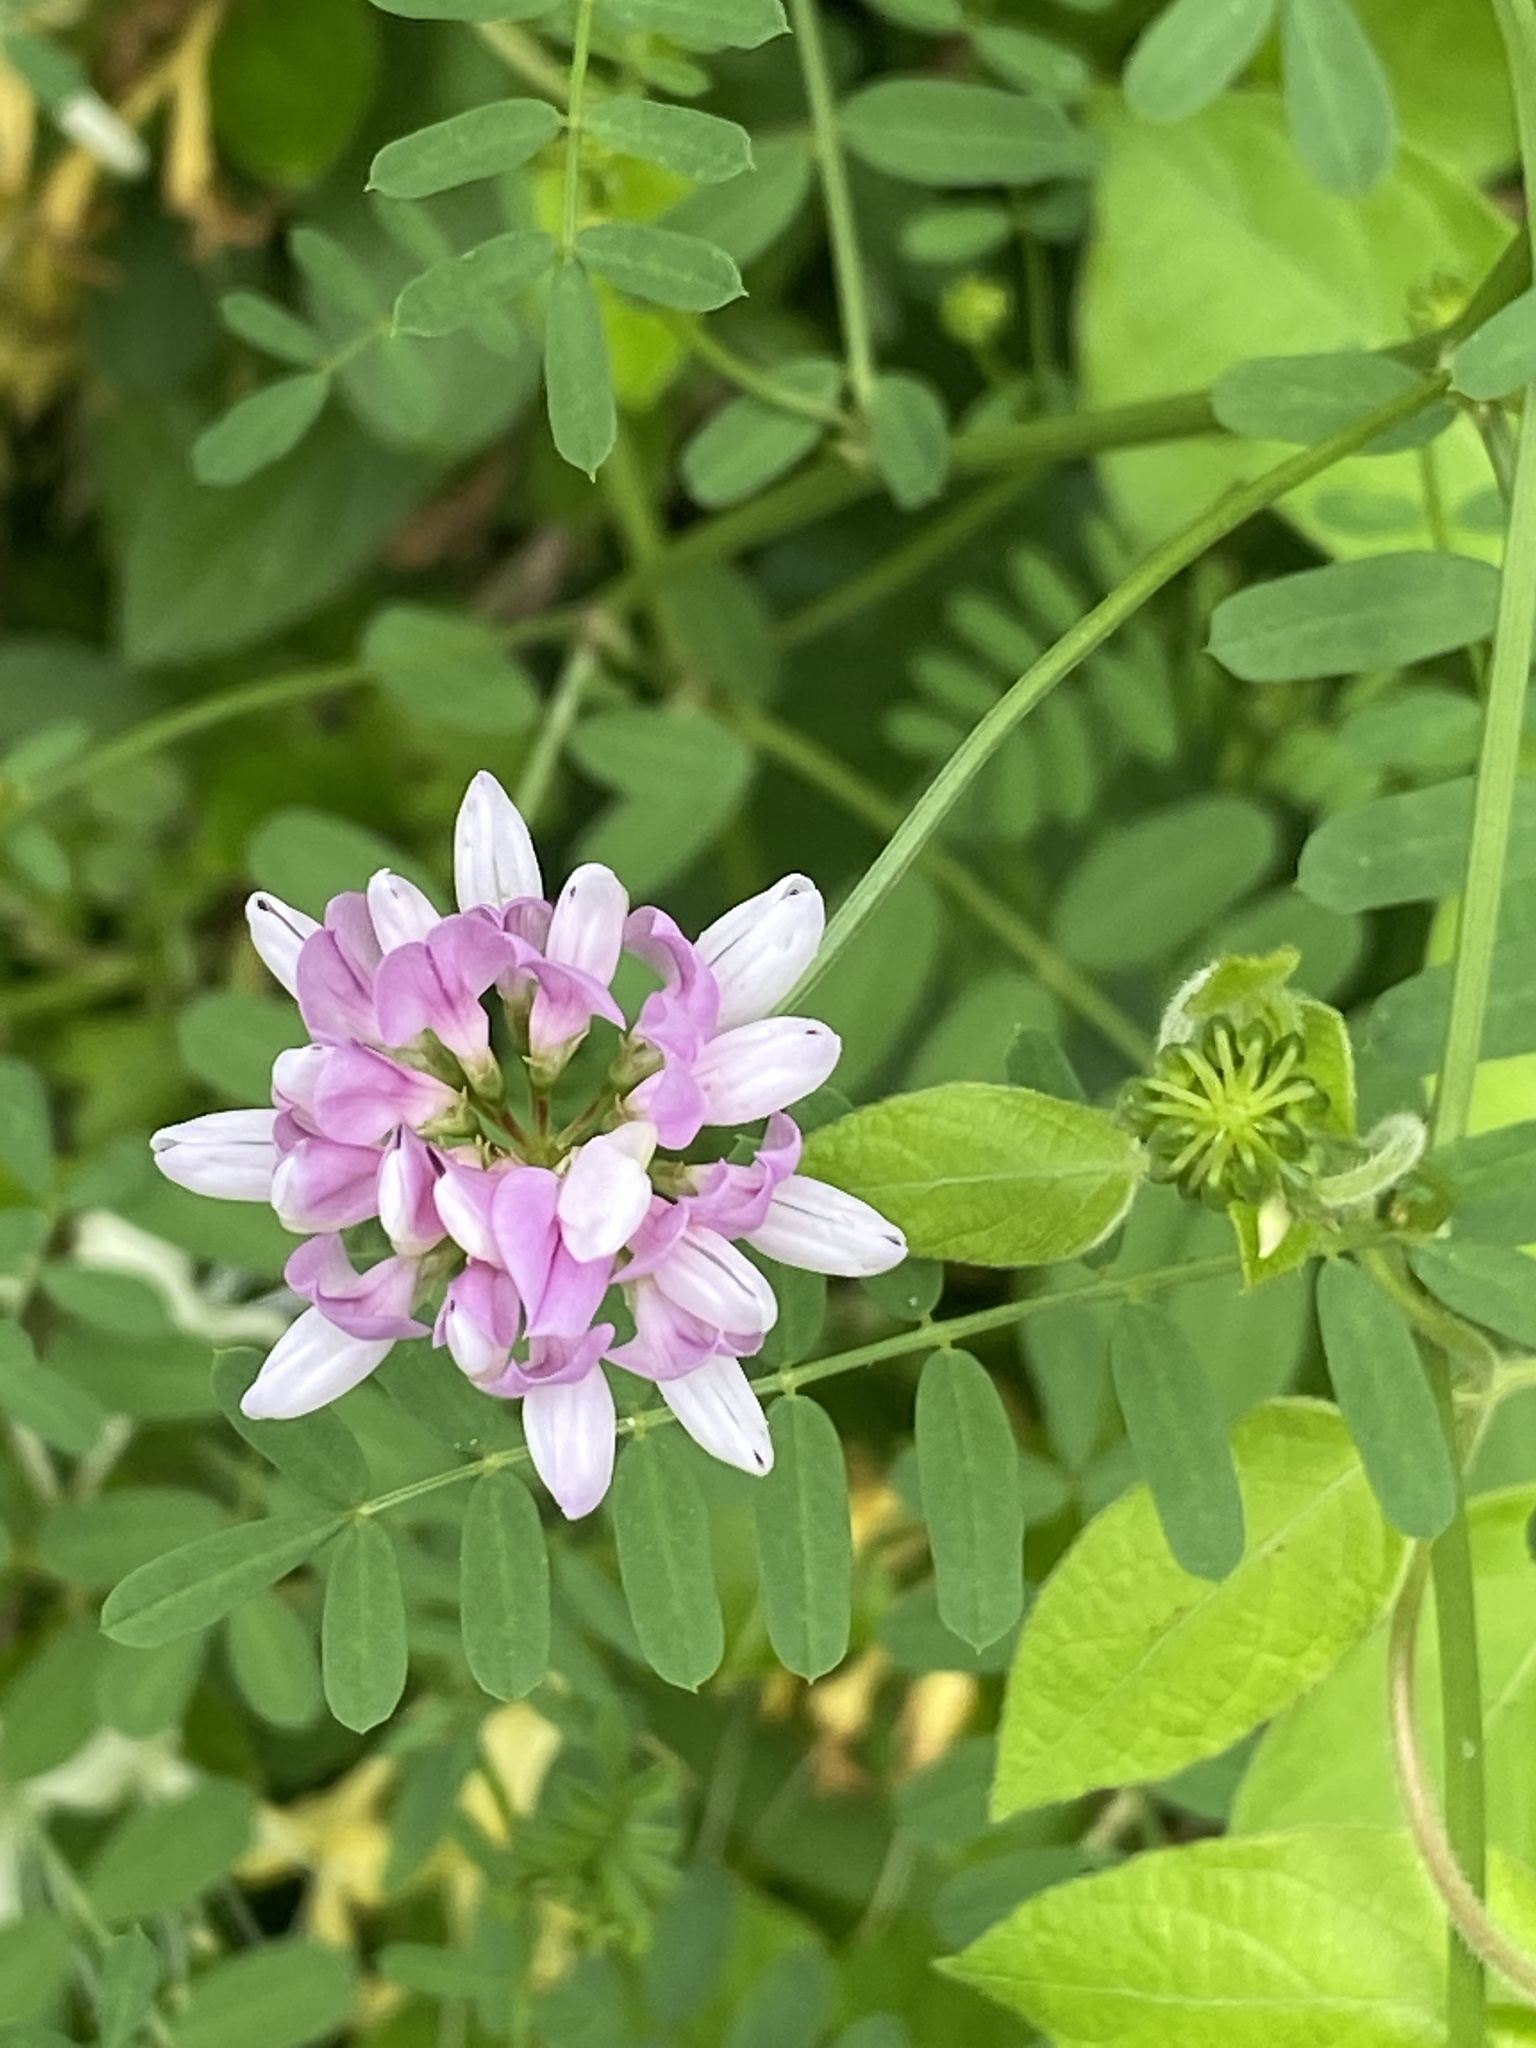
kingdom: Plantae
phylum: Tracheophyta
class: Magnoliopsida
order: Fabales
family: Fabaceae
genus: Coronilla
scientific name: Coronilla varia
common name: Crownvetch
